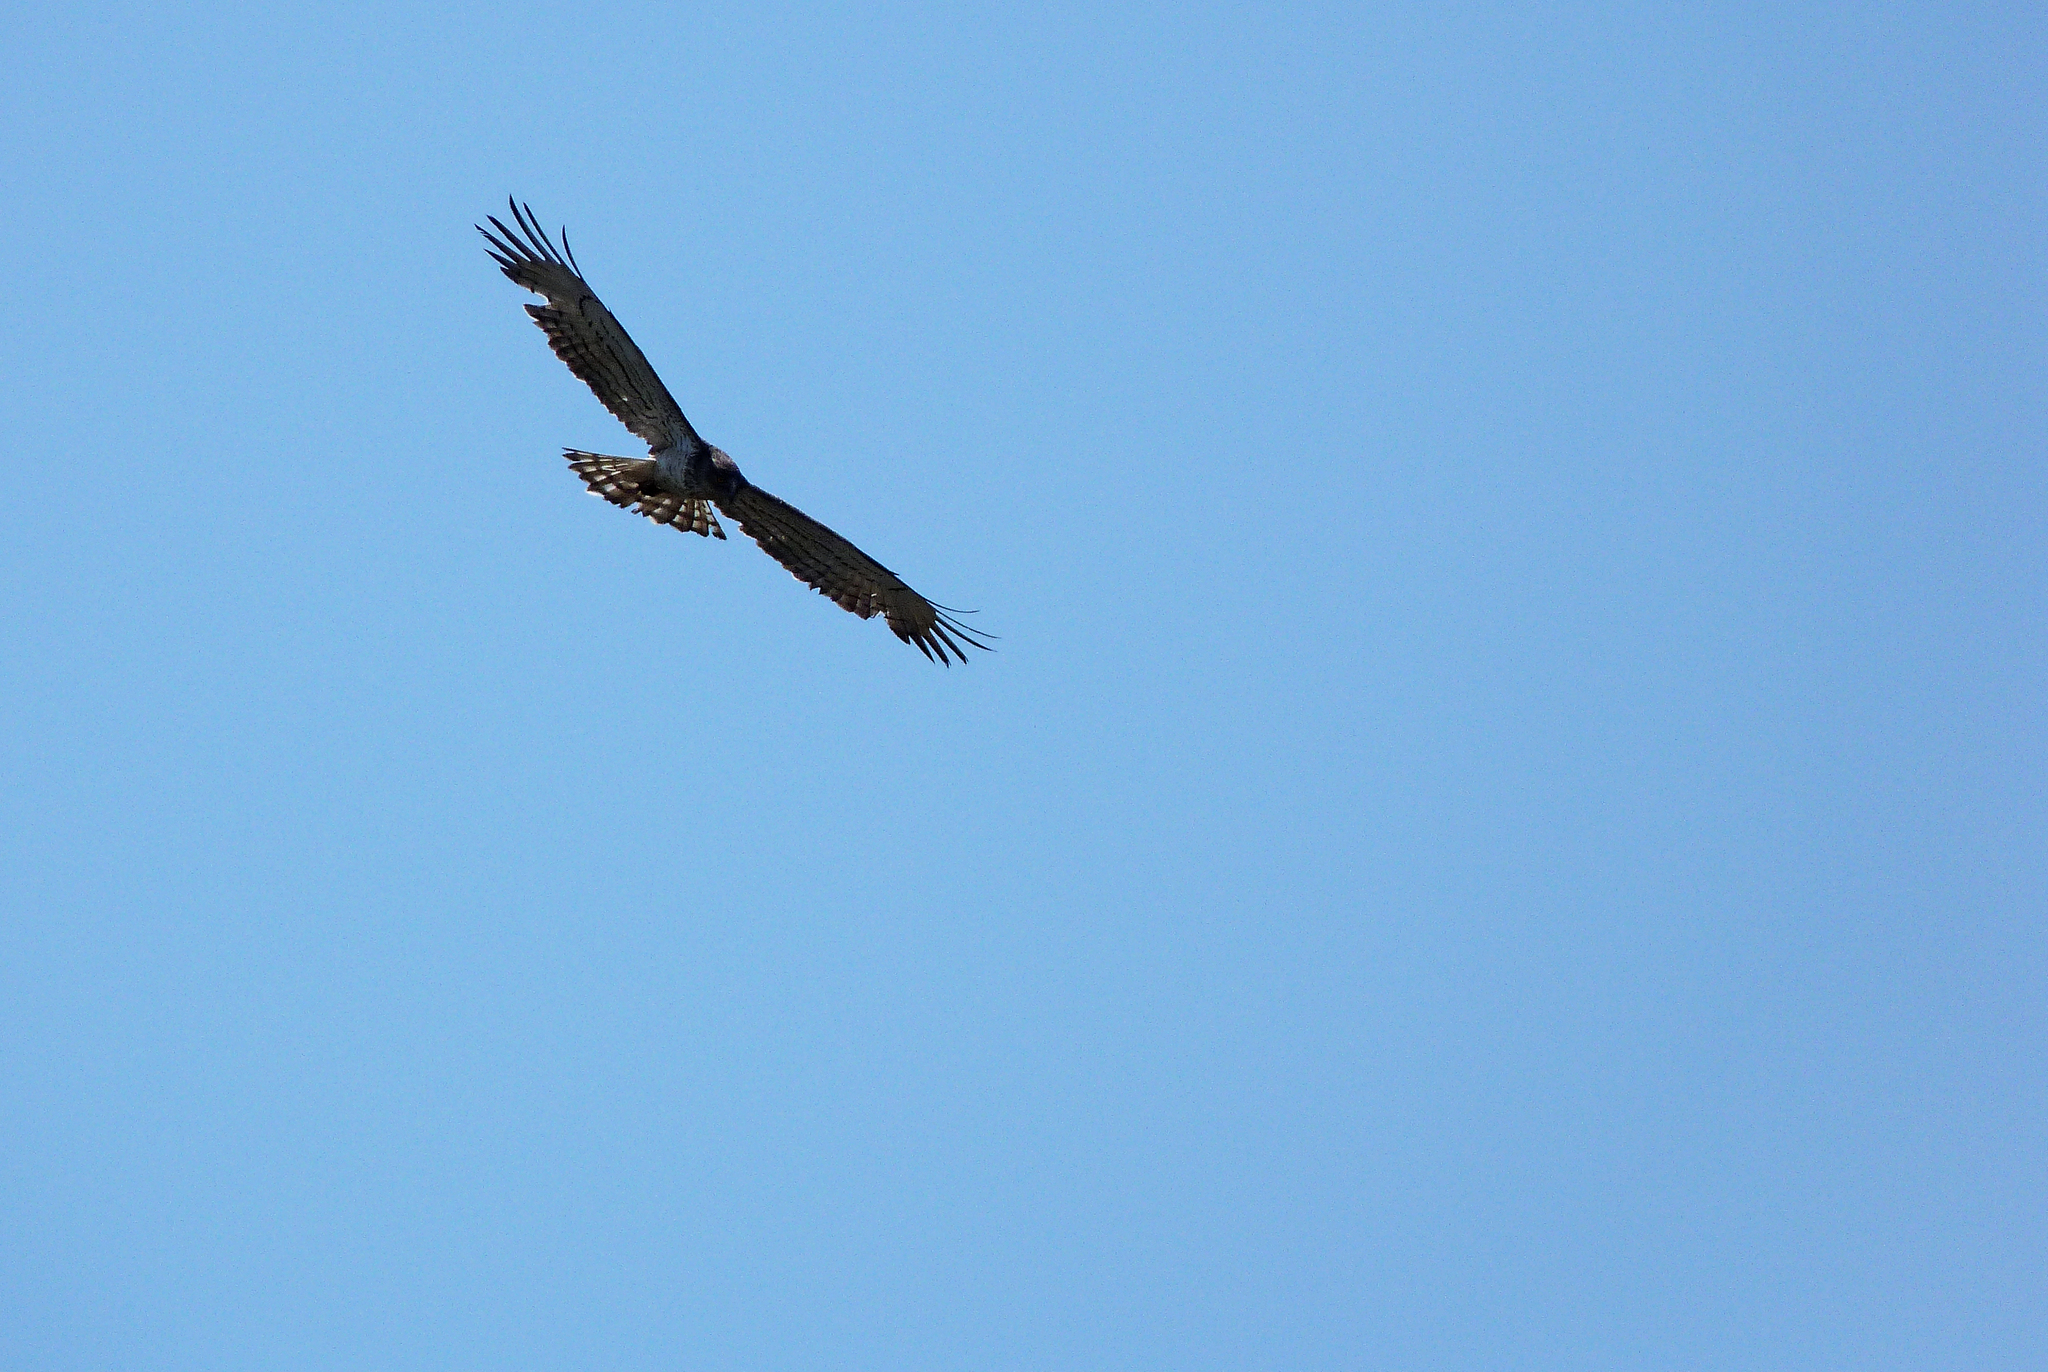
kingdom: Animalia
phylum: Chordata
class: Aves
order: Accipitriformes
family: Accipitridae
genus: Circaetus
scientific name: Circaetus gallicus
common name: Short-toed snake eagle
